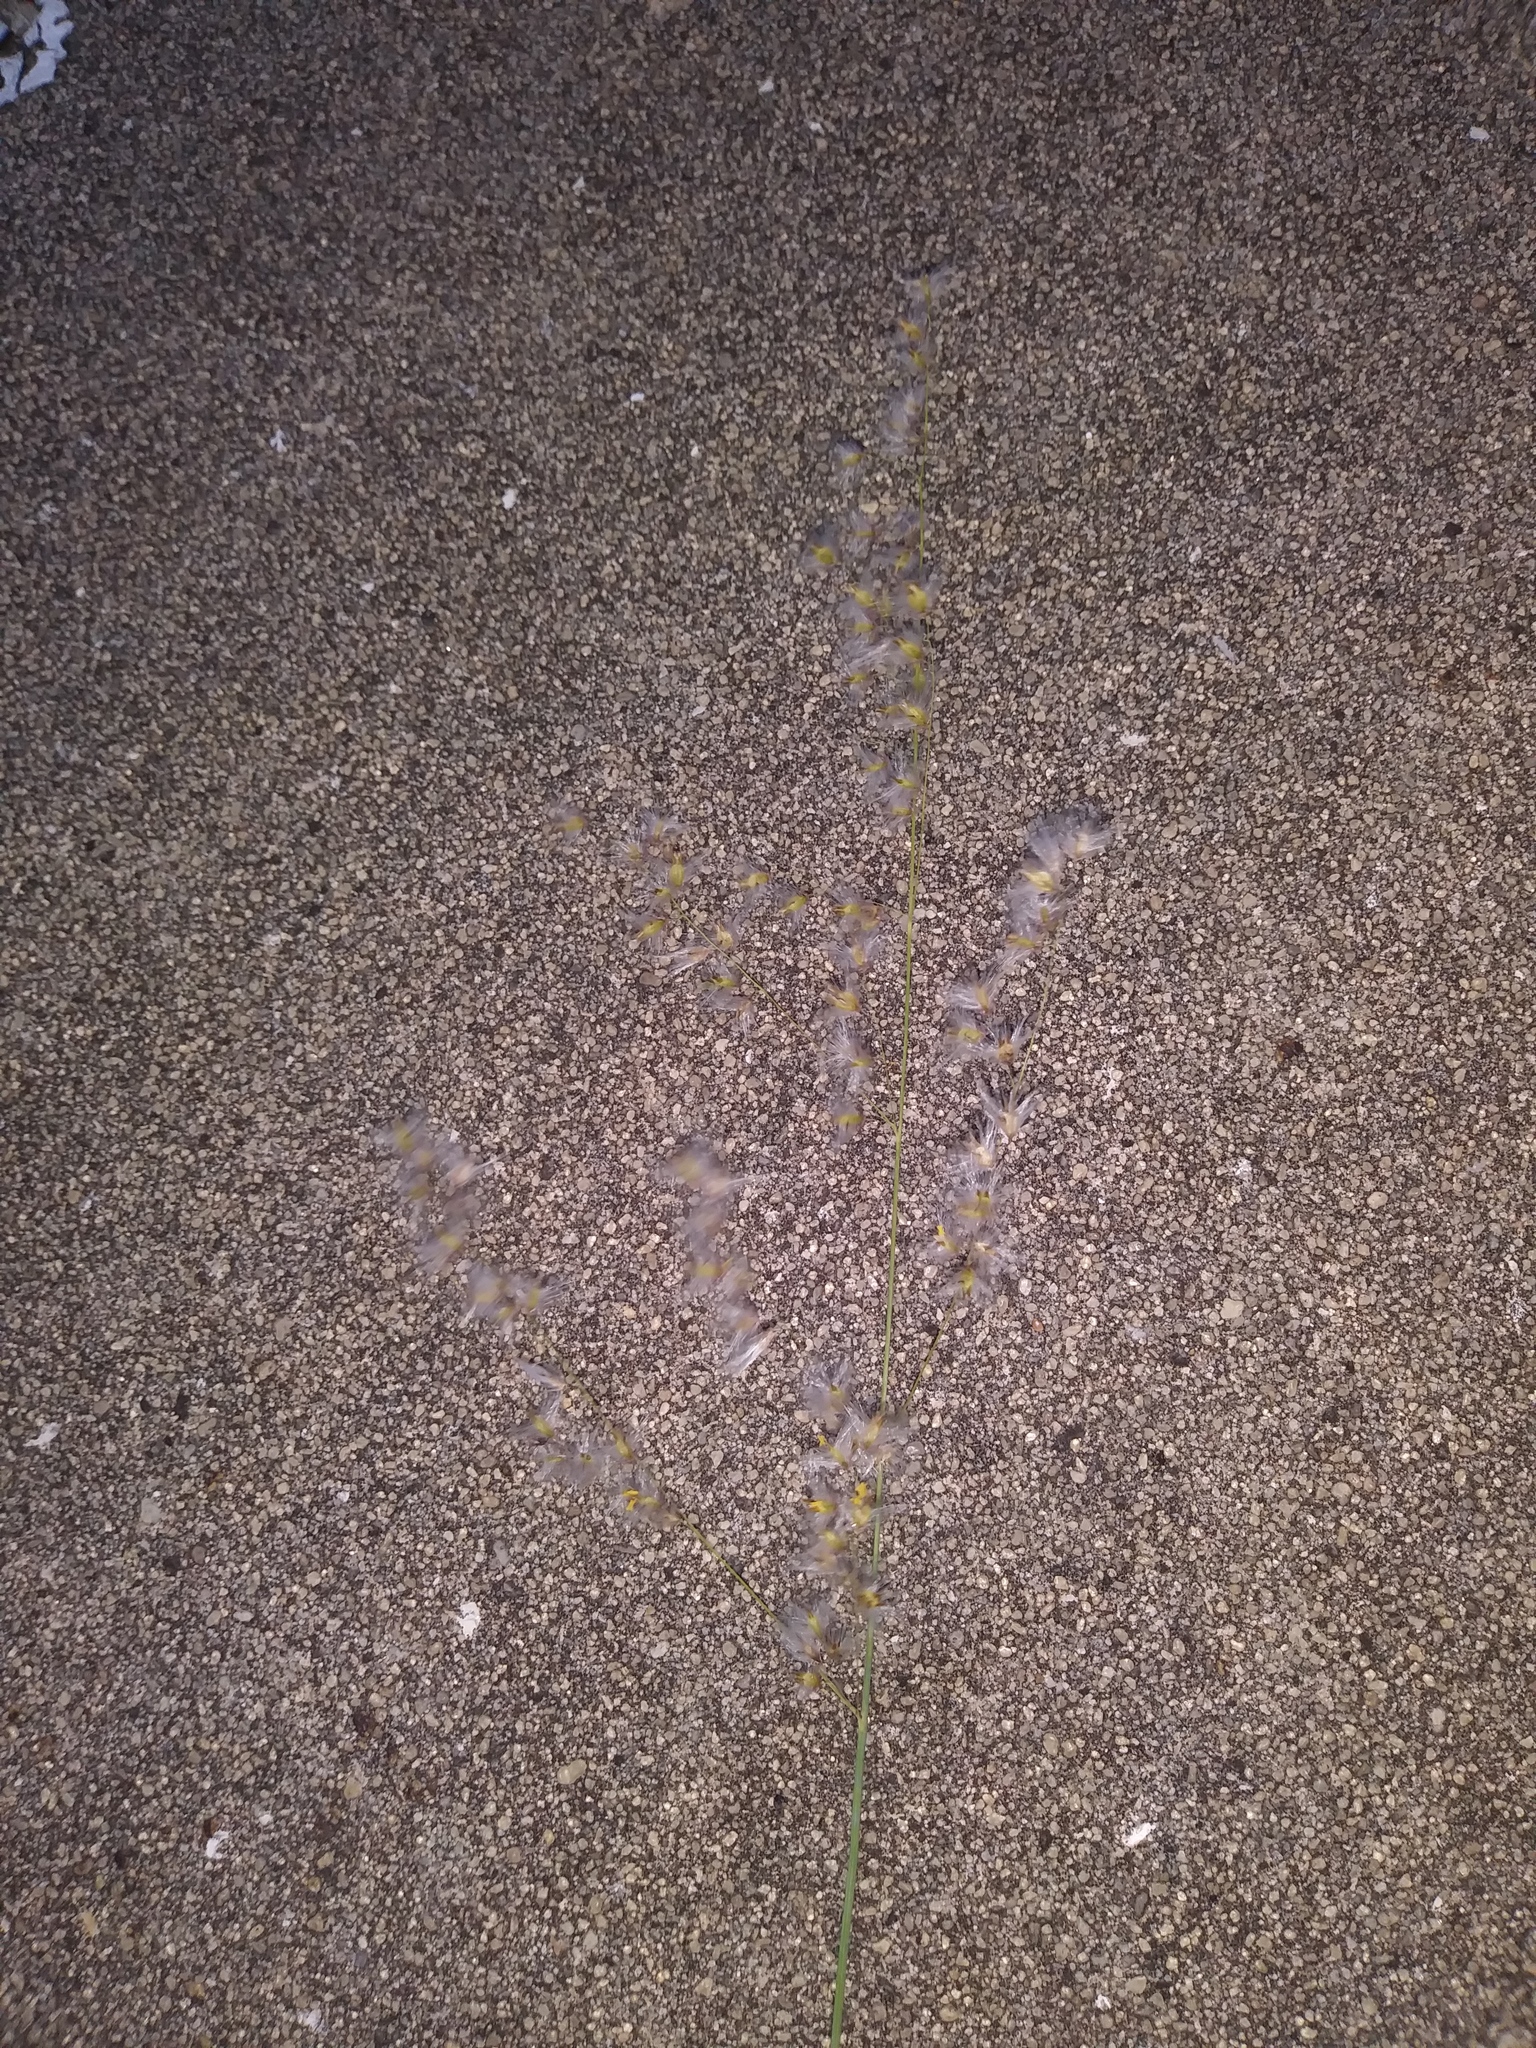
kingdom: Plantae
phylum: Tracheophyta
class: Liliopsida
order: Poales
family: Poaceae
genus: Melinis
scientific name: Melinis repens
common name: Rose natal grass
